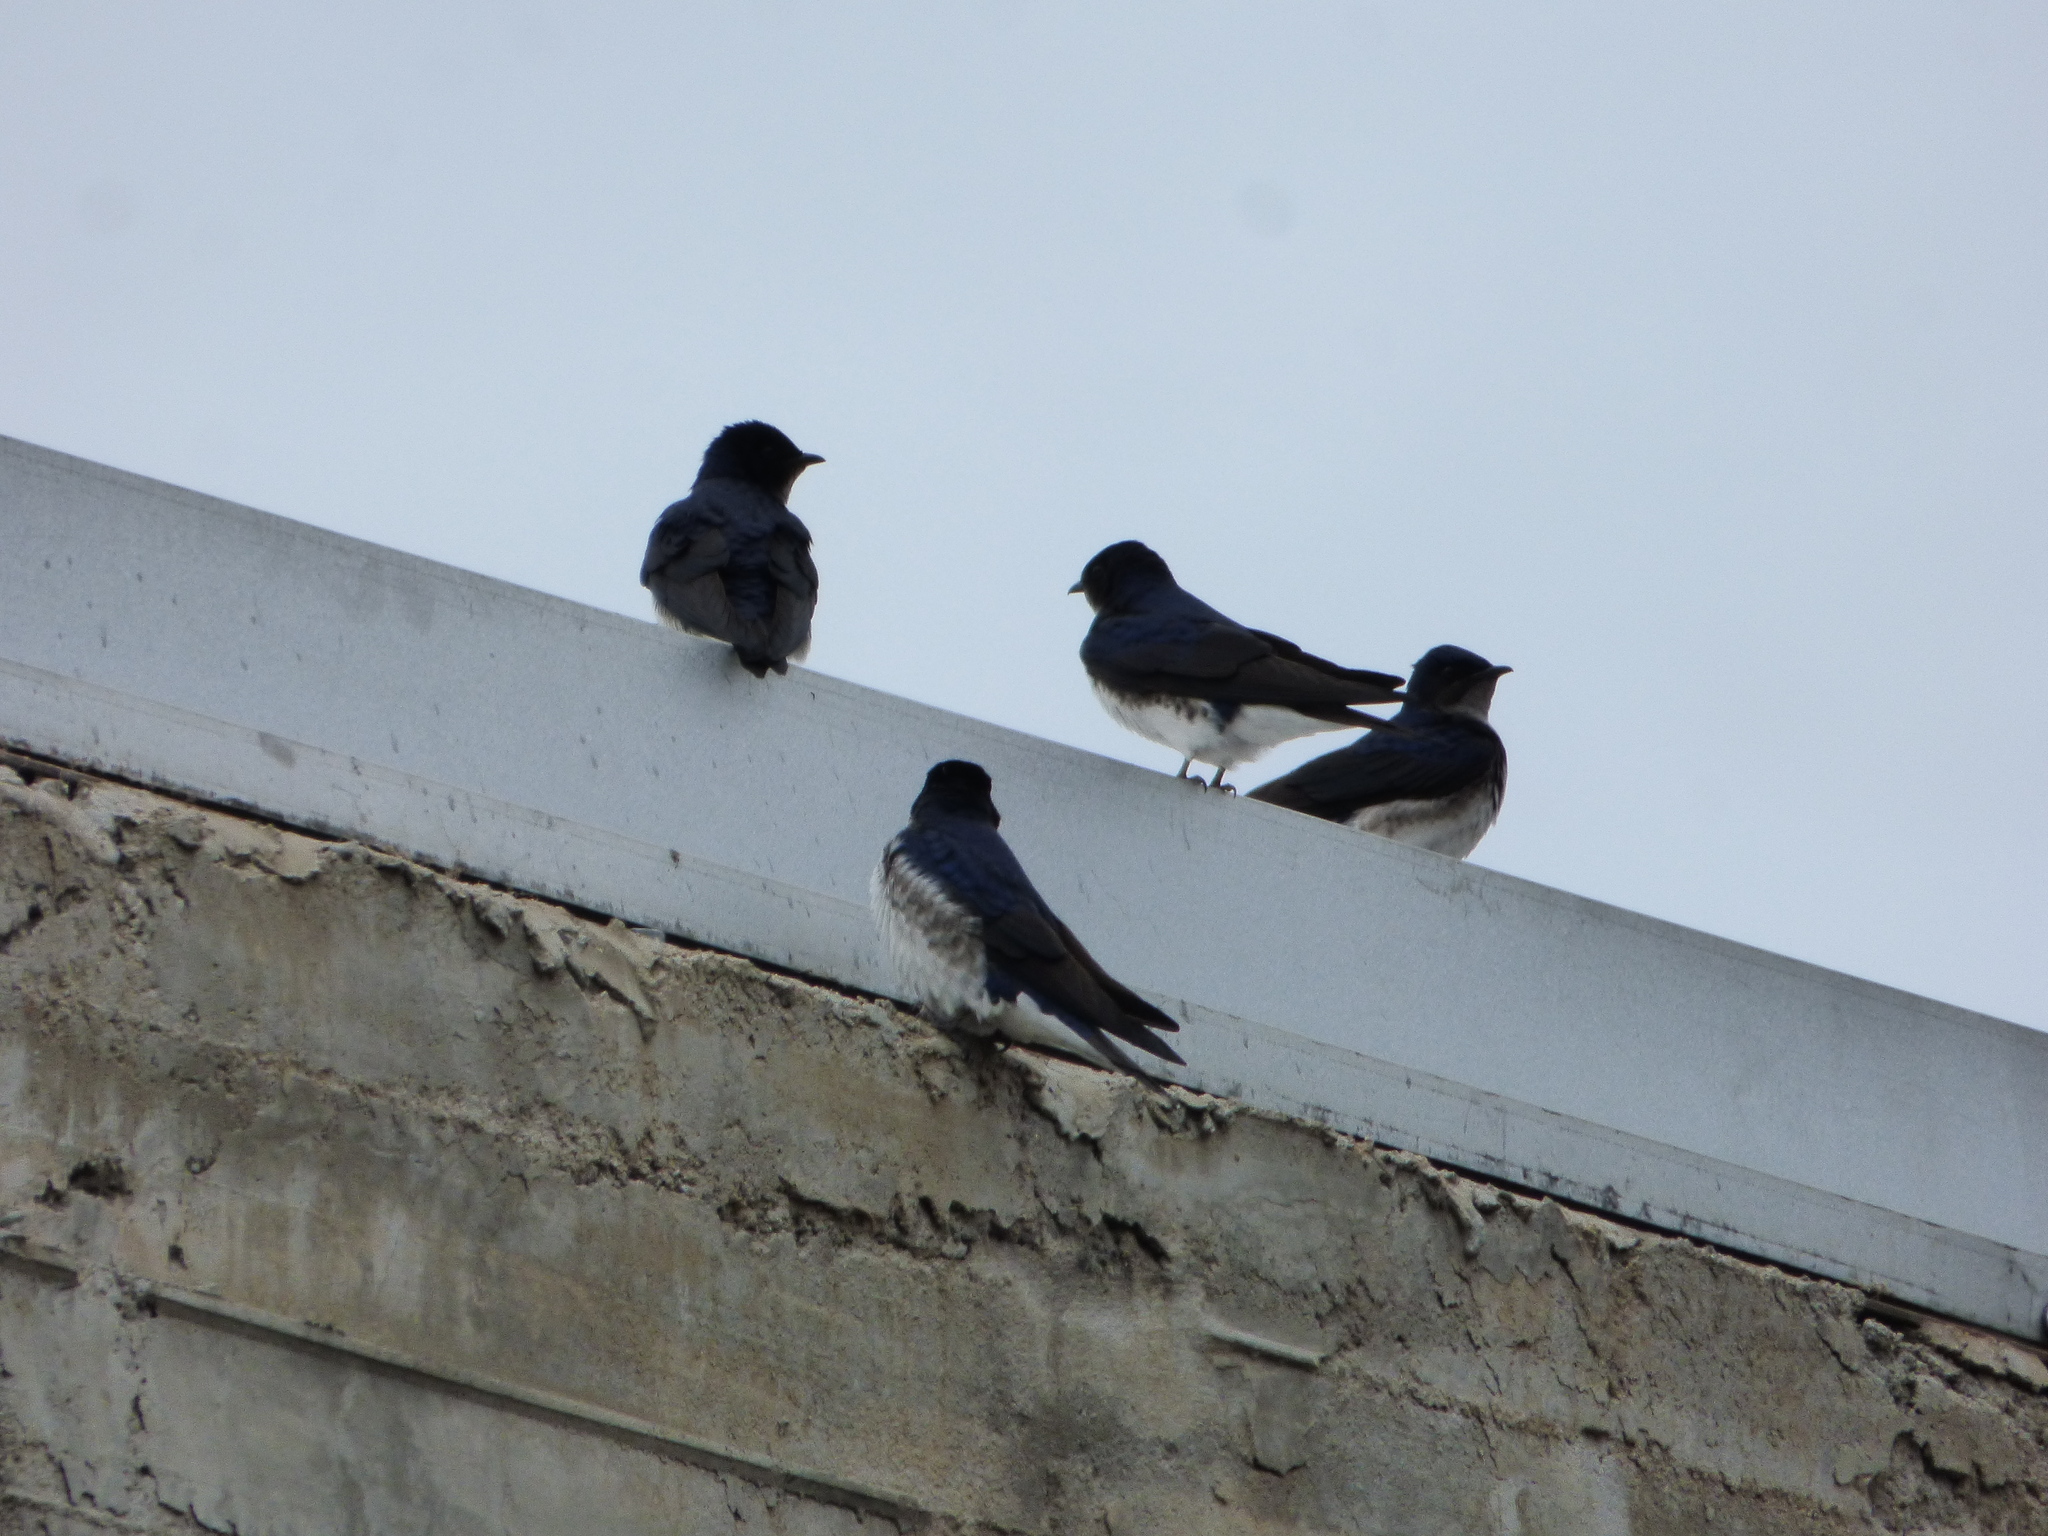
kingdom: Animalia
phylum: Chordata
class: Aves
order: Passeriformes
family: Hirundinidae
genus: Progne
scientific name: Progne chalybea
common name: Grey-breasted martin
